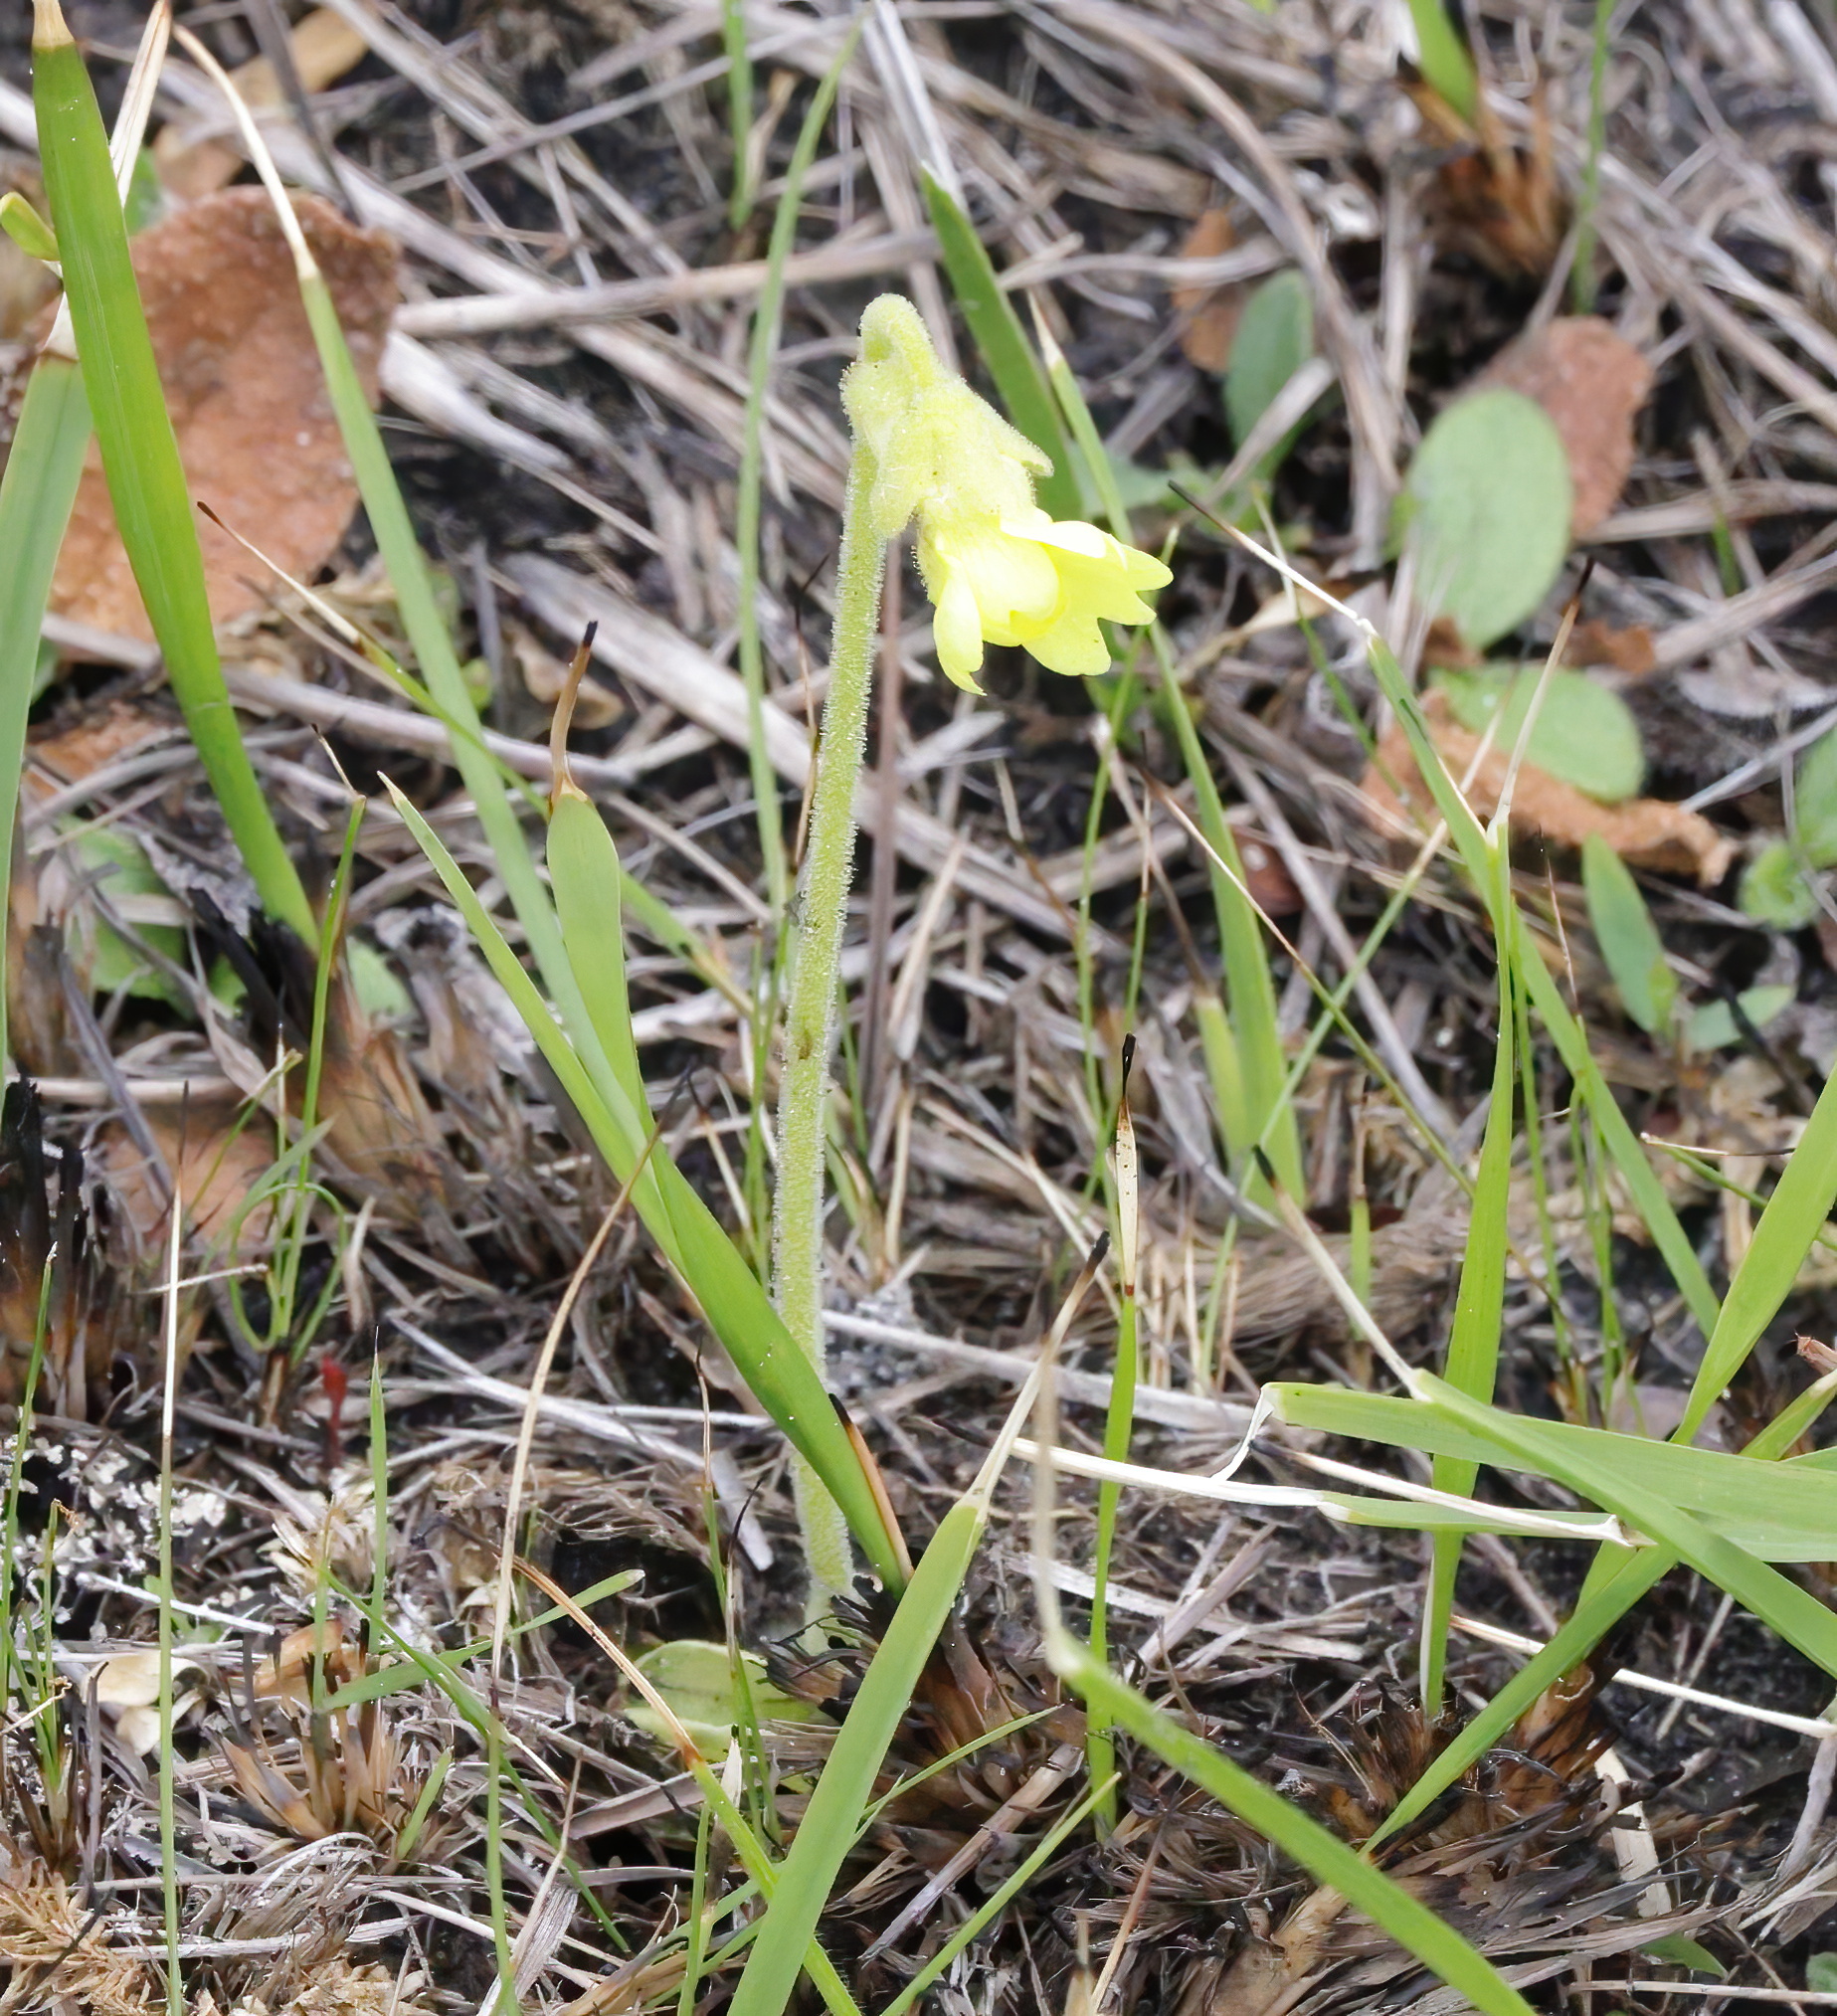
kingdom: Plantae
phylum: Tracheophyta
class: Magnoliopsida
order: Lamiales
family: Lentibulariaceae
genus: Pinguicula
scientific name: Pinguicula lutea
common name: Yellow butterwort
